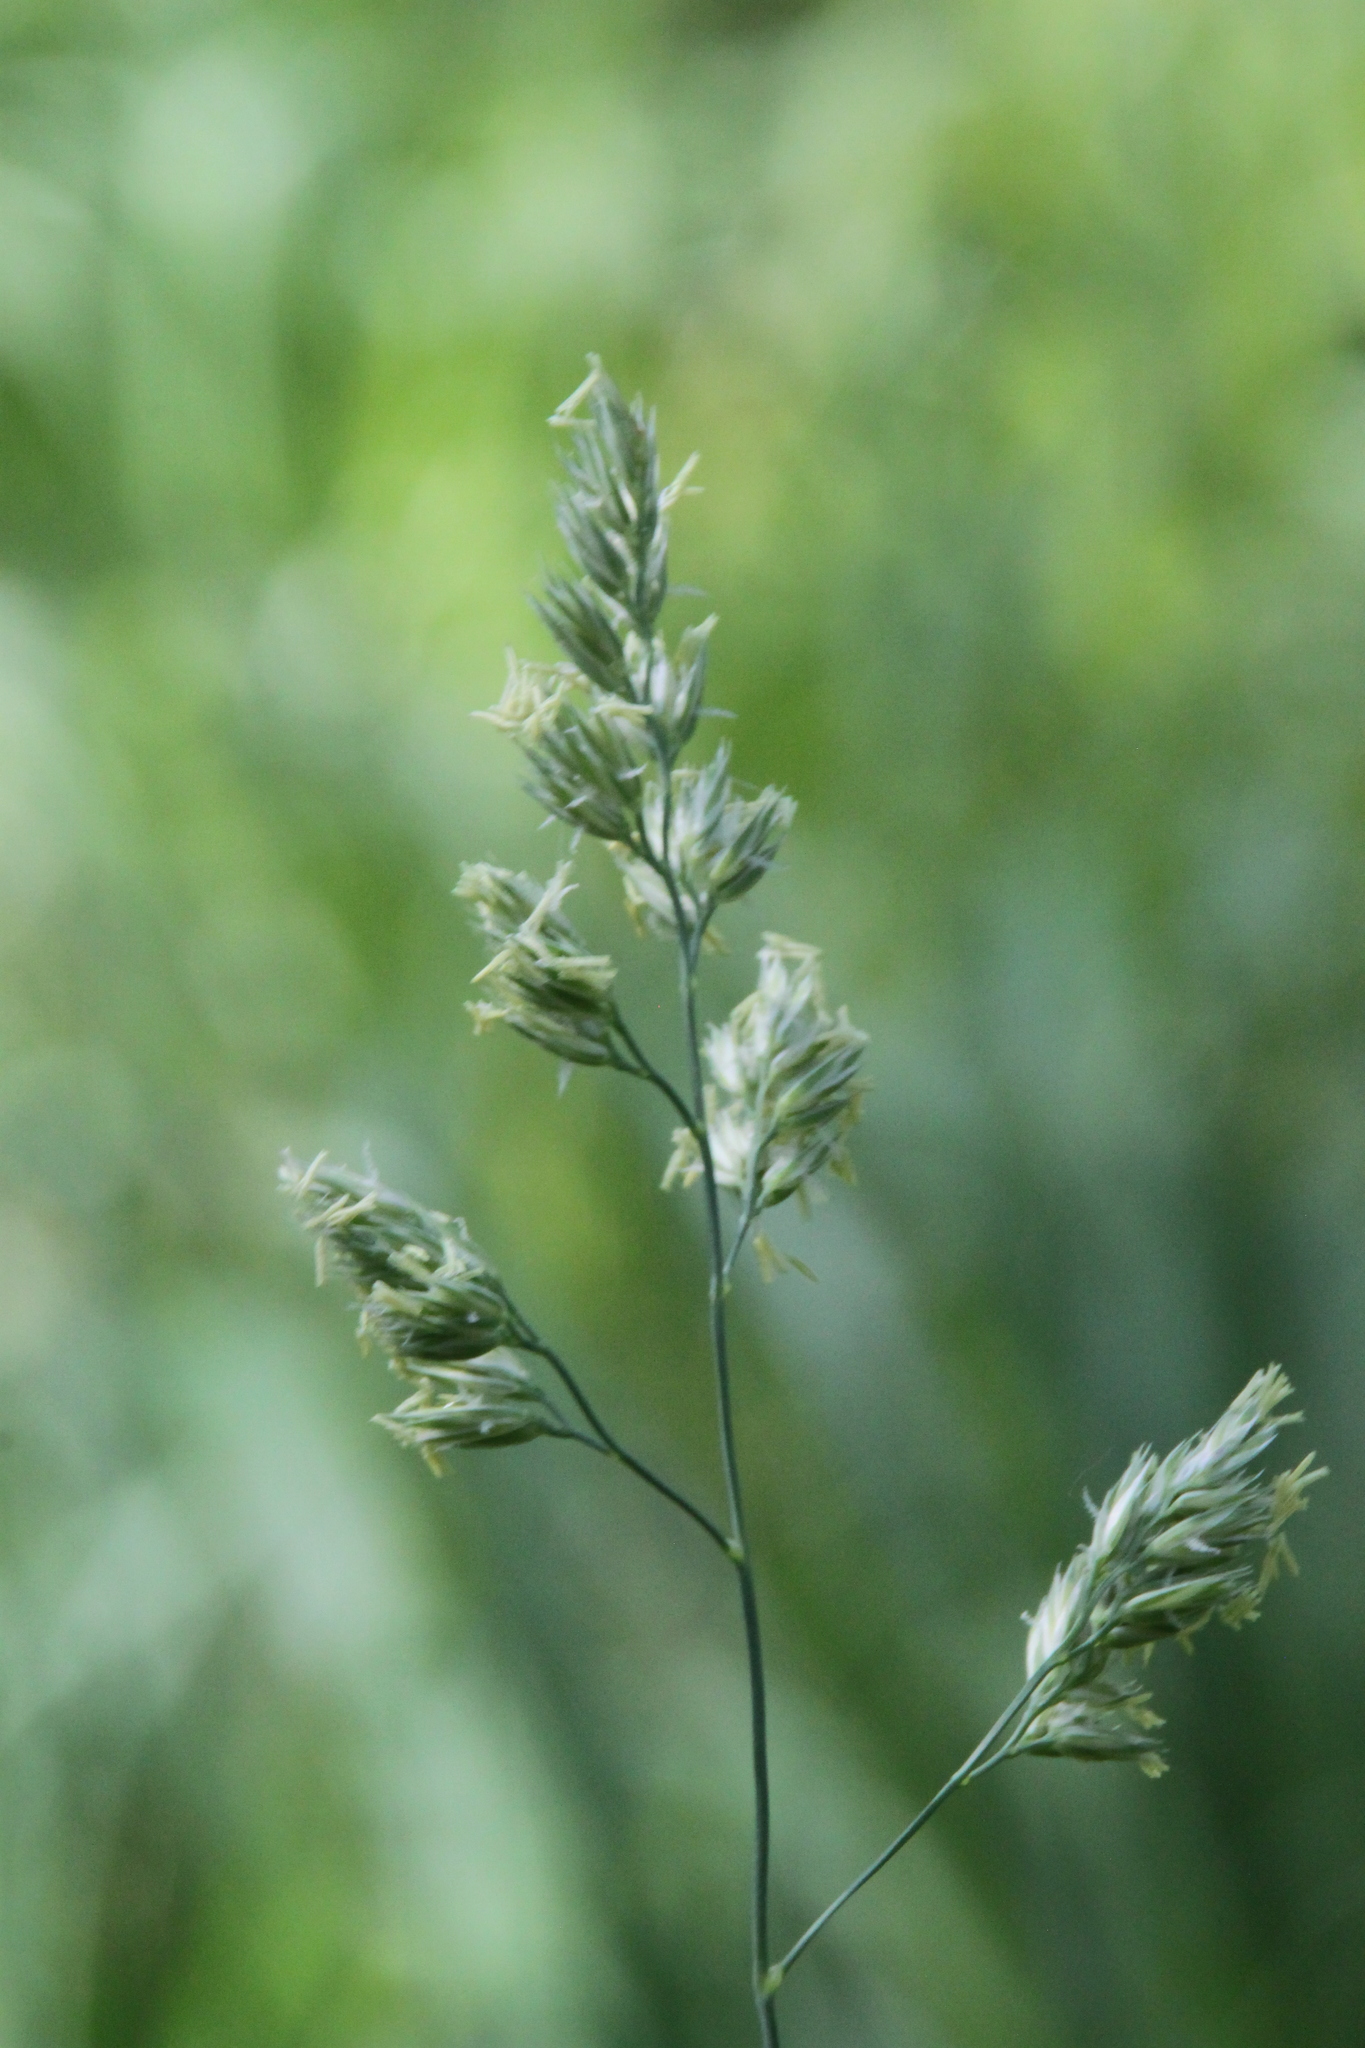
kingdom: Plantae
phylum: Tracheophyta
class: Liliopsida
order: Poales
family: Poaceae
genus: Dactylis
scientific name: Dactylis glomerata
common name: Orchardgrass
